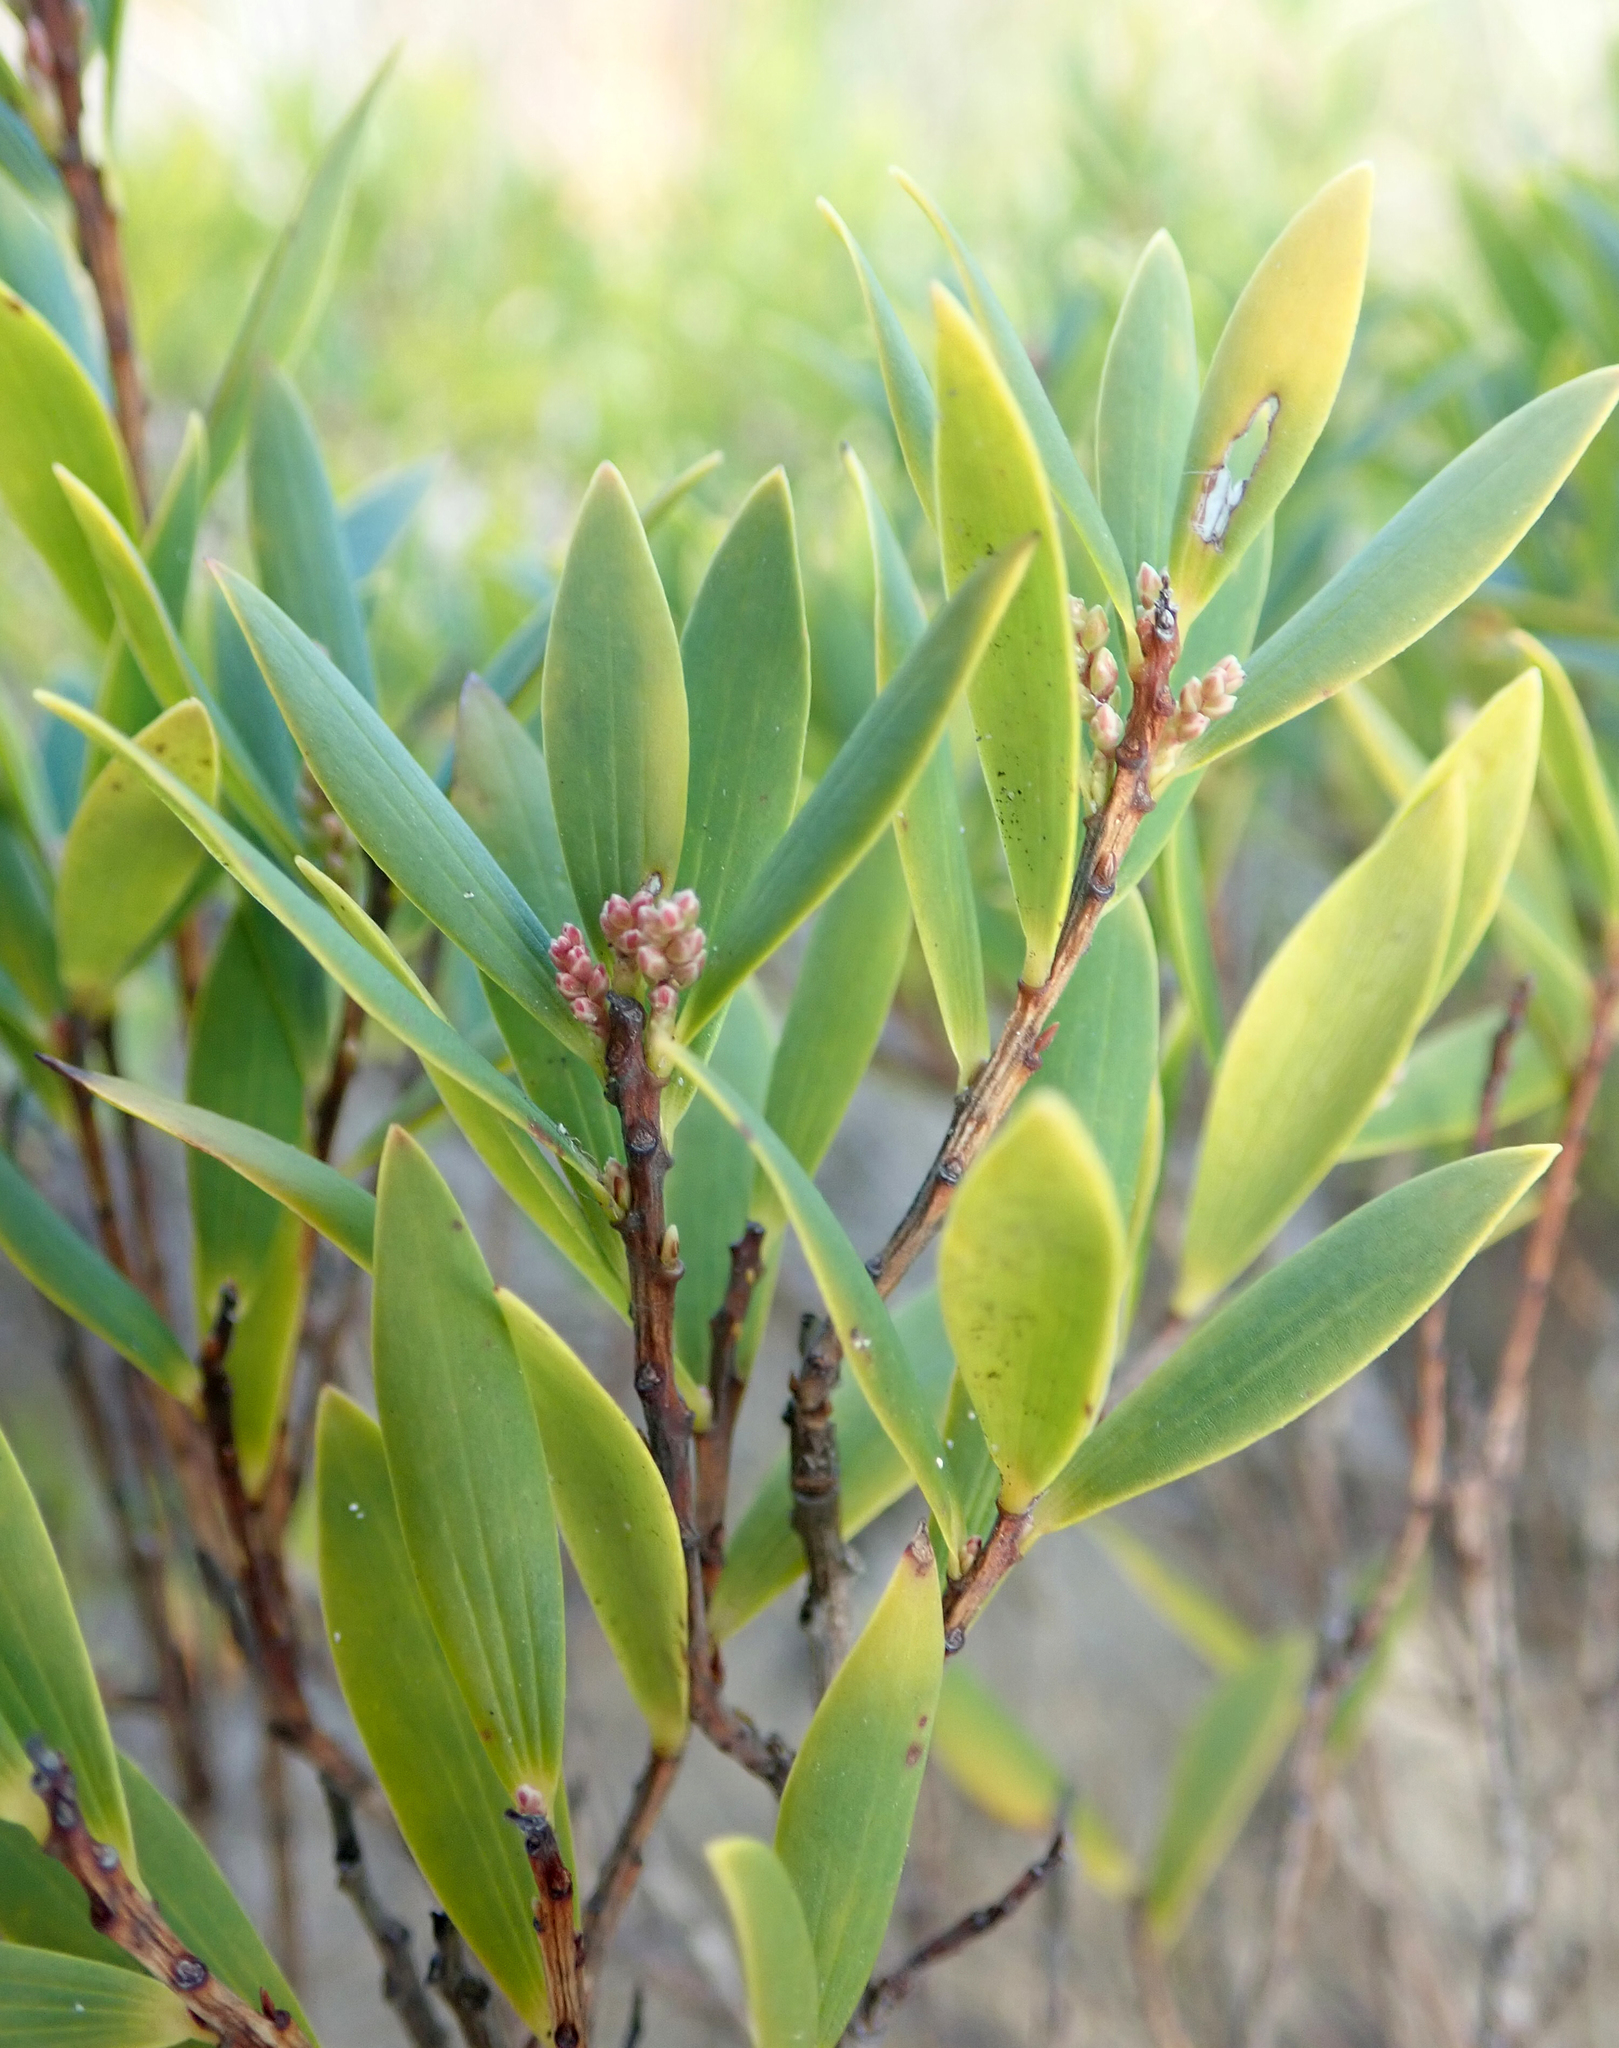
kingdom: Plantae
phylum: Tracheophyta
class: Magnoliopsida
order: Ericales
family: Ericaceae
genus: Leptecophylla
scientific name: Leptecophylla parvifolia
